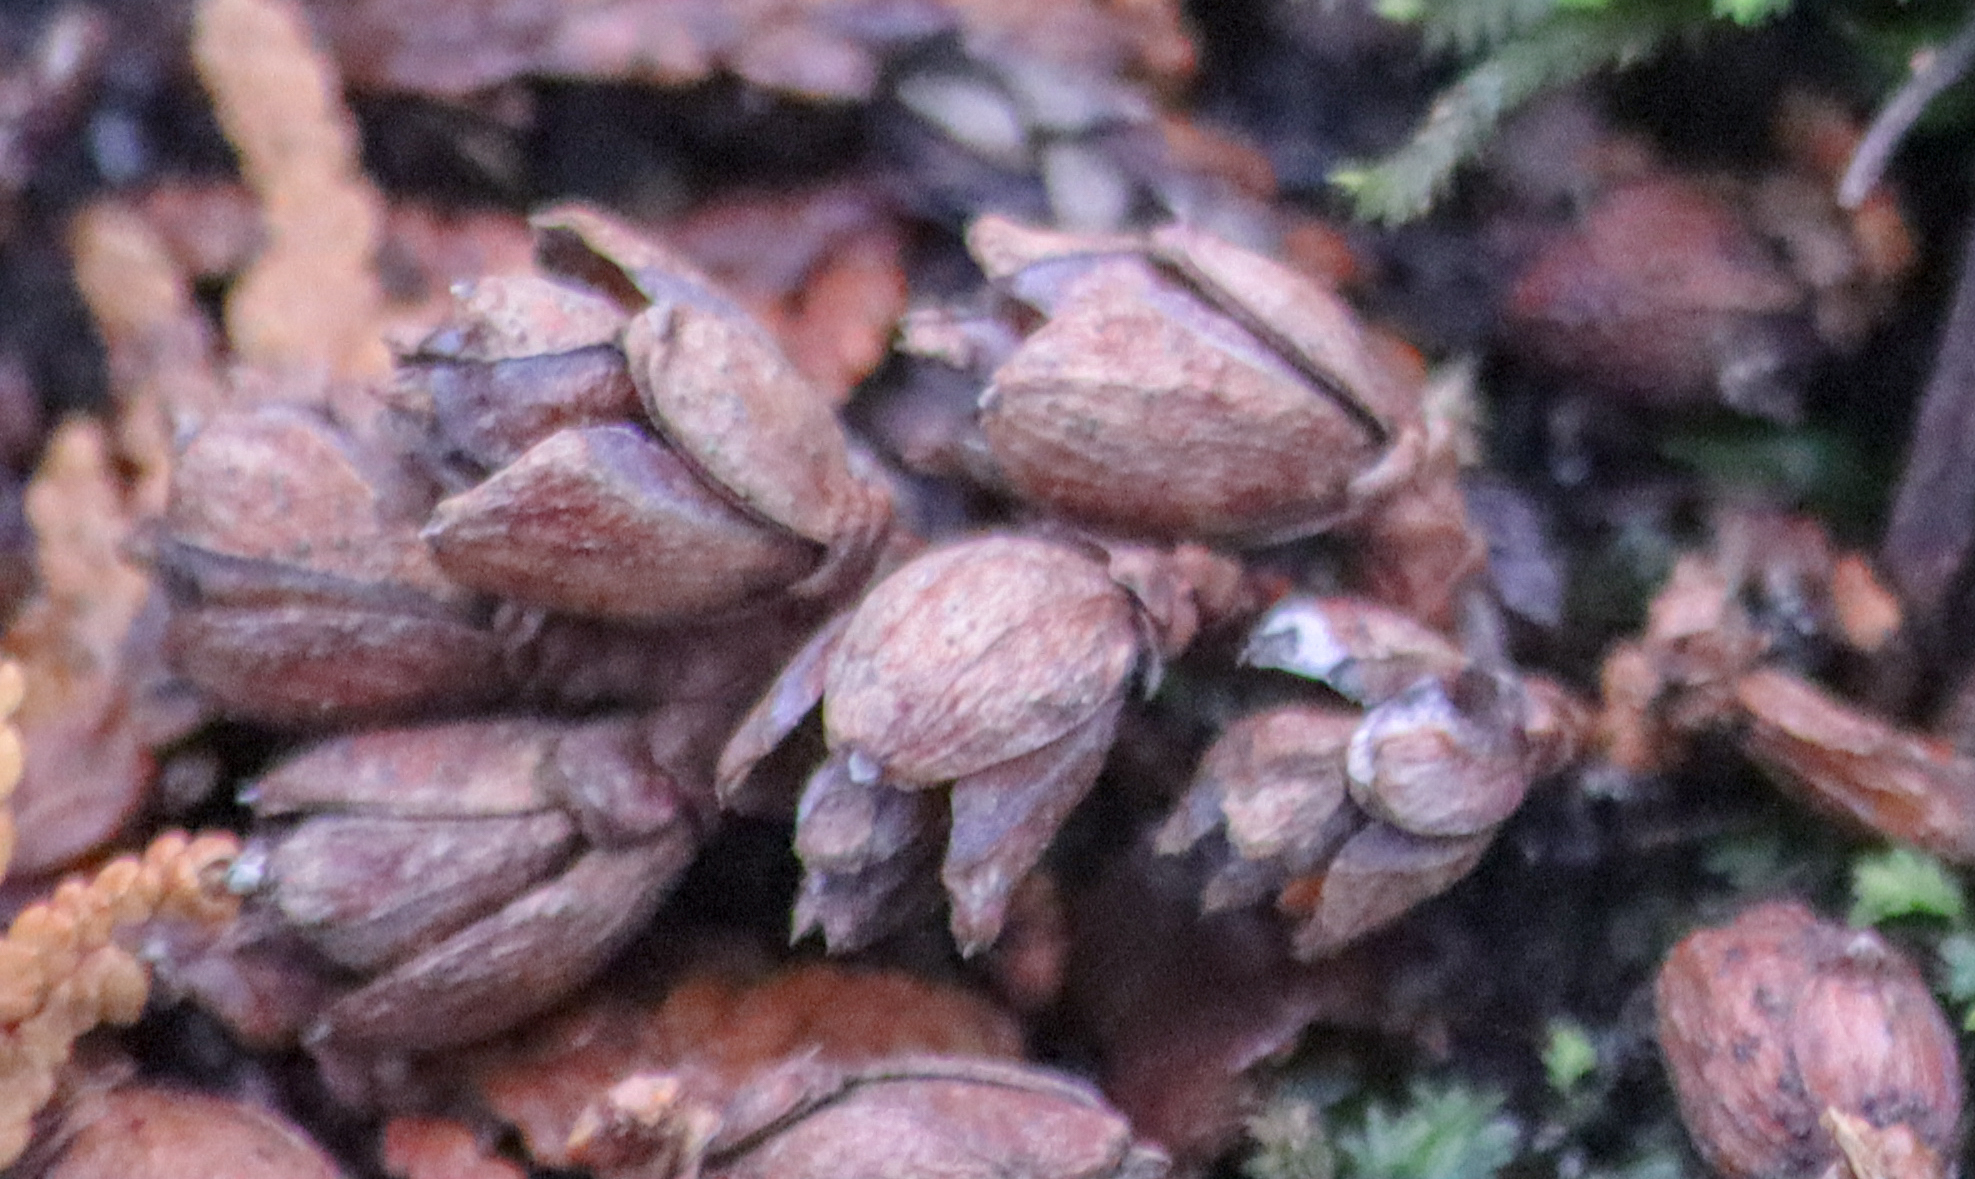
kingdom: Plantae
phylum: Tracheophyta
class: Pinopsida
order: Pinales
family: Cupressaceae
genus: Thuja
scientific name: Thuja occidentalis
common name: Northern white-cedar
